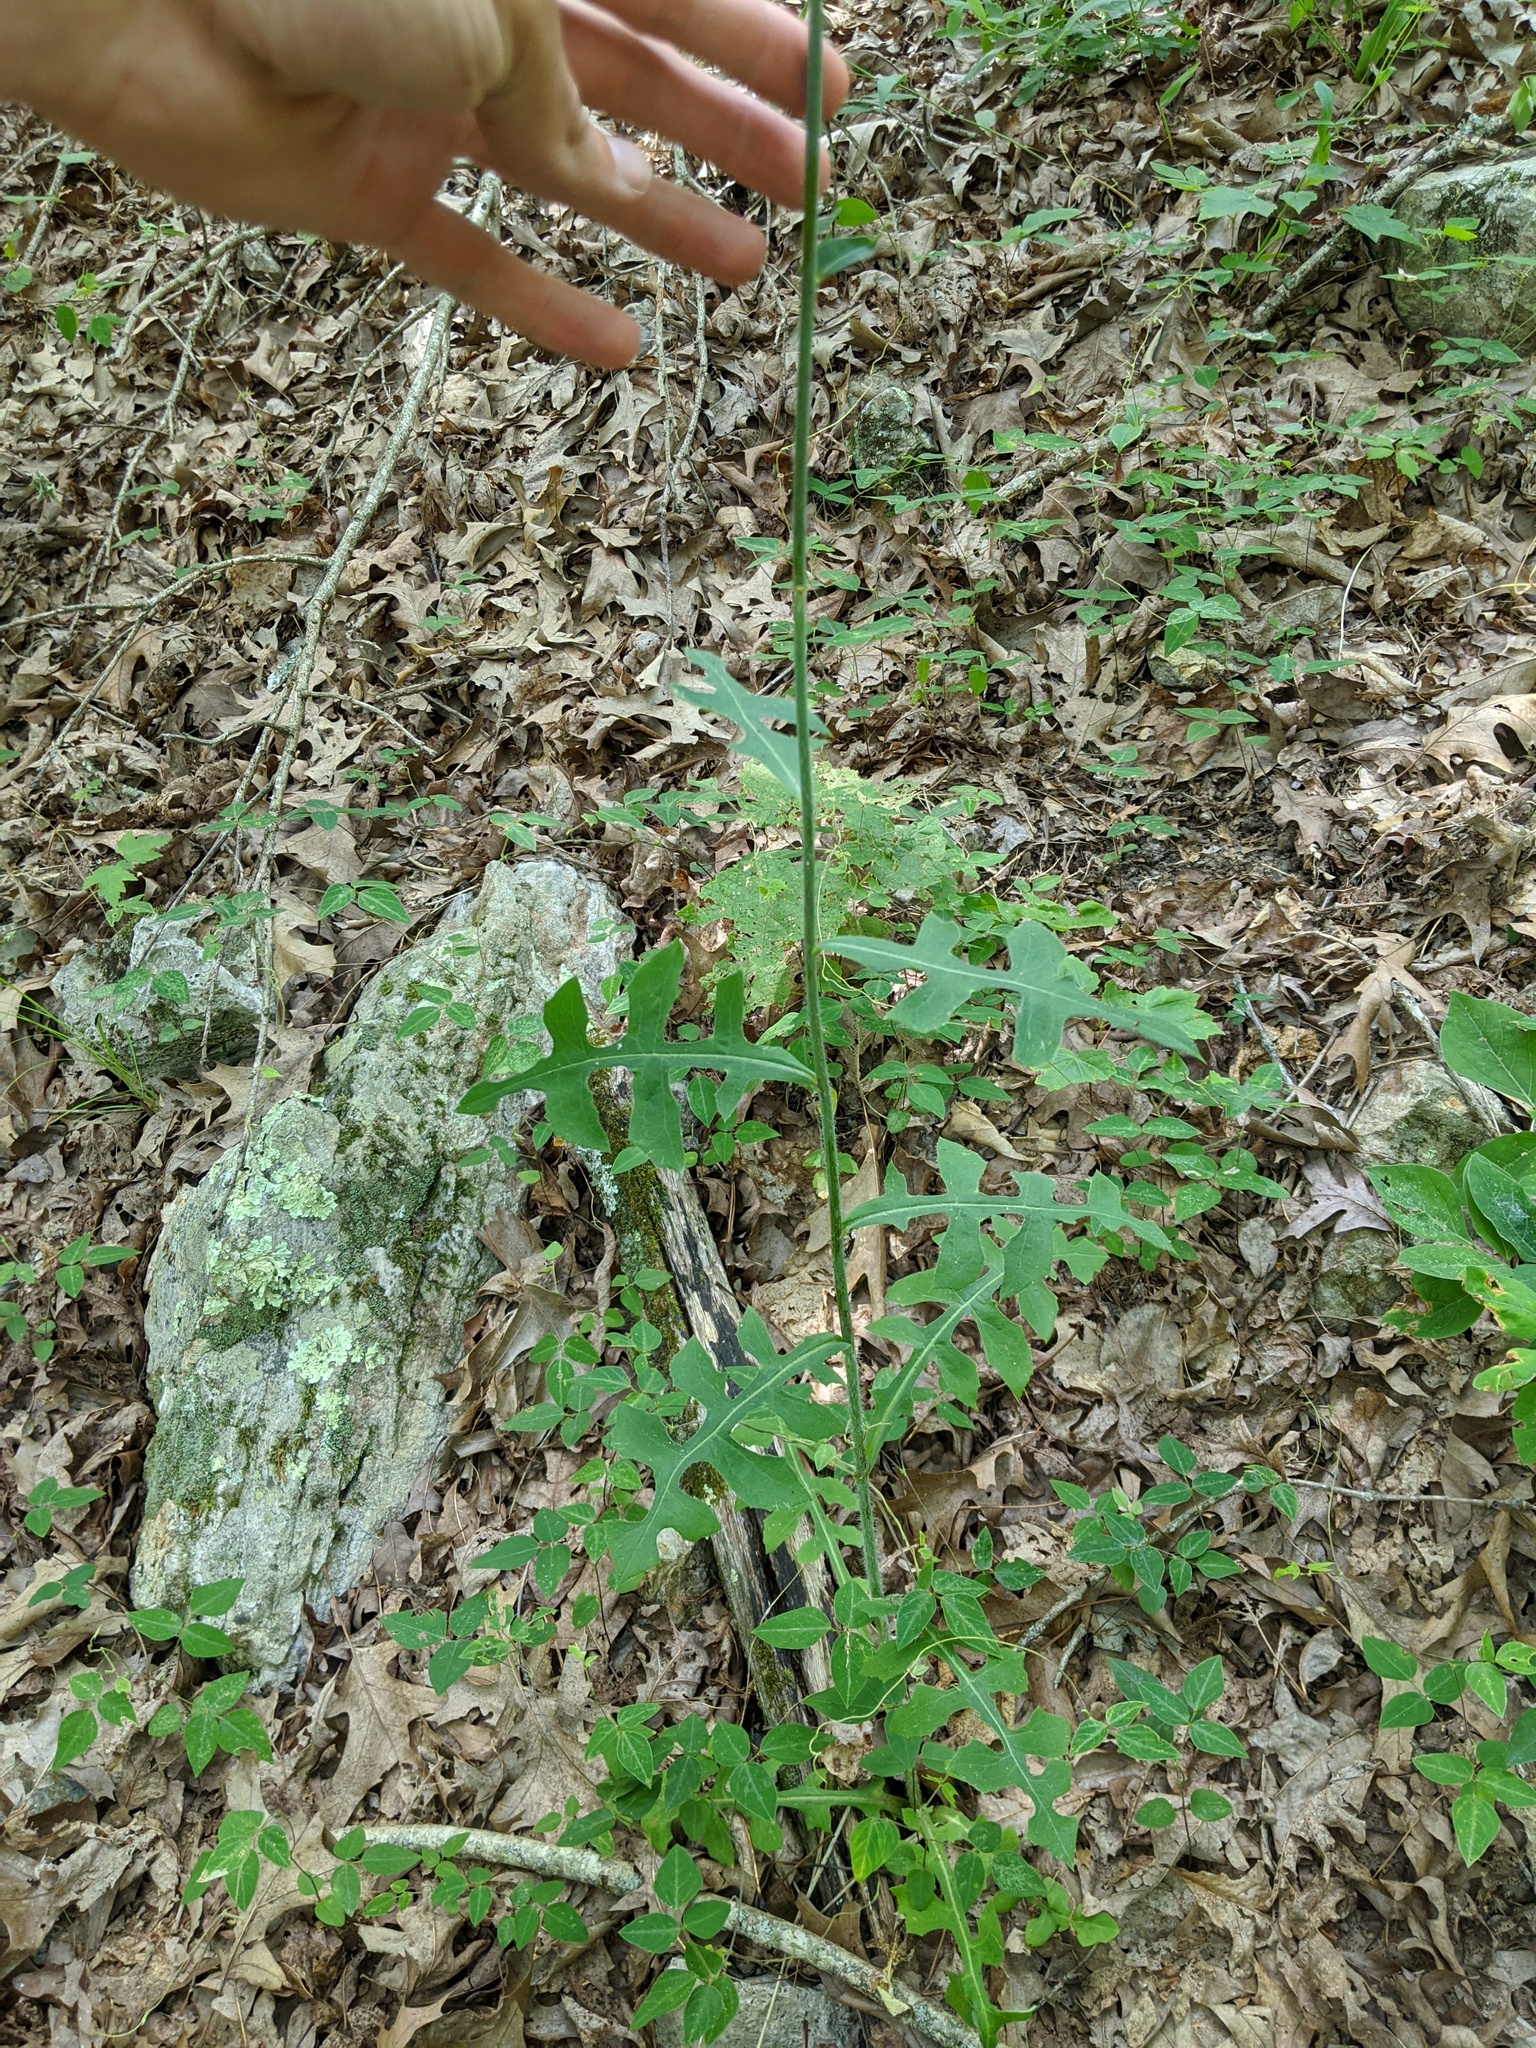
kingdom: Plantae
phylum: Tracheophyta
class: Magnoliopsida
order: Asterales
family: Asteraceae
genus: Lactuca
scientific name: Lactuca hirsuta
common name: Hairy lettuce
